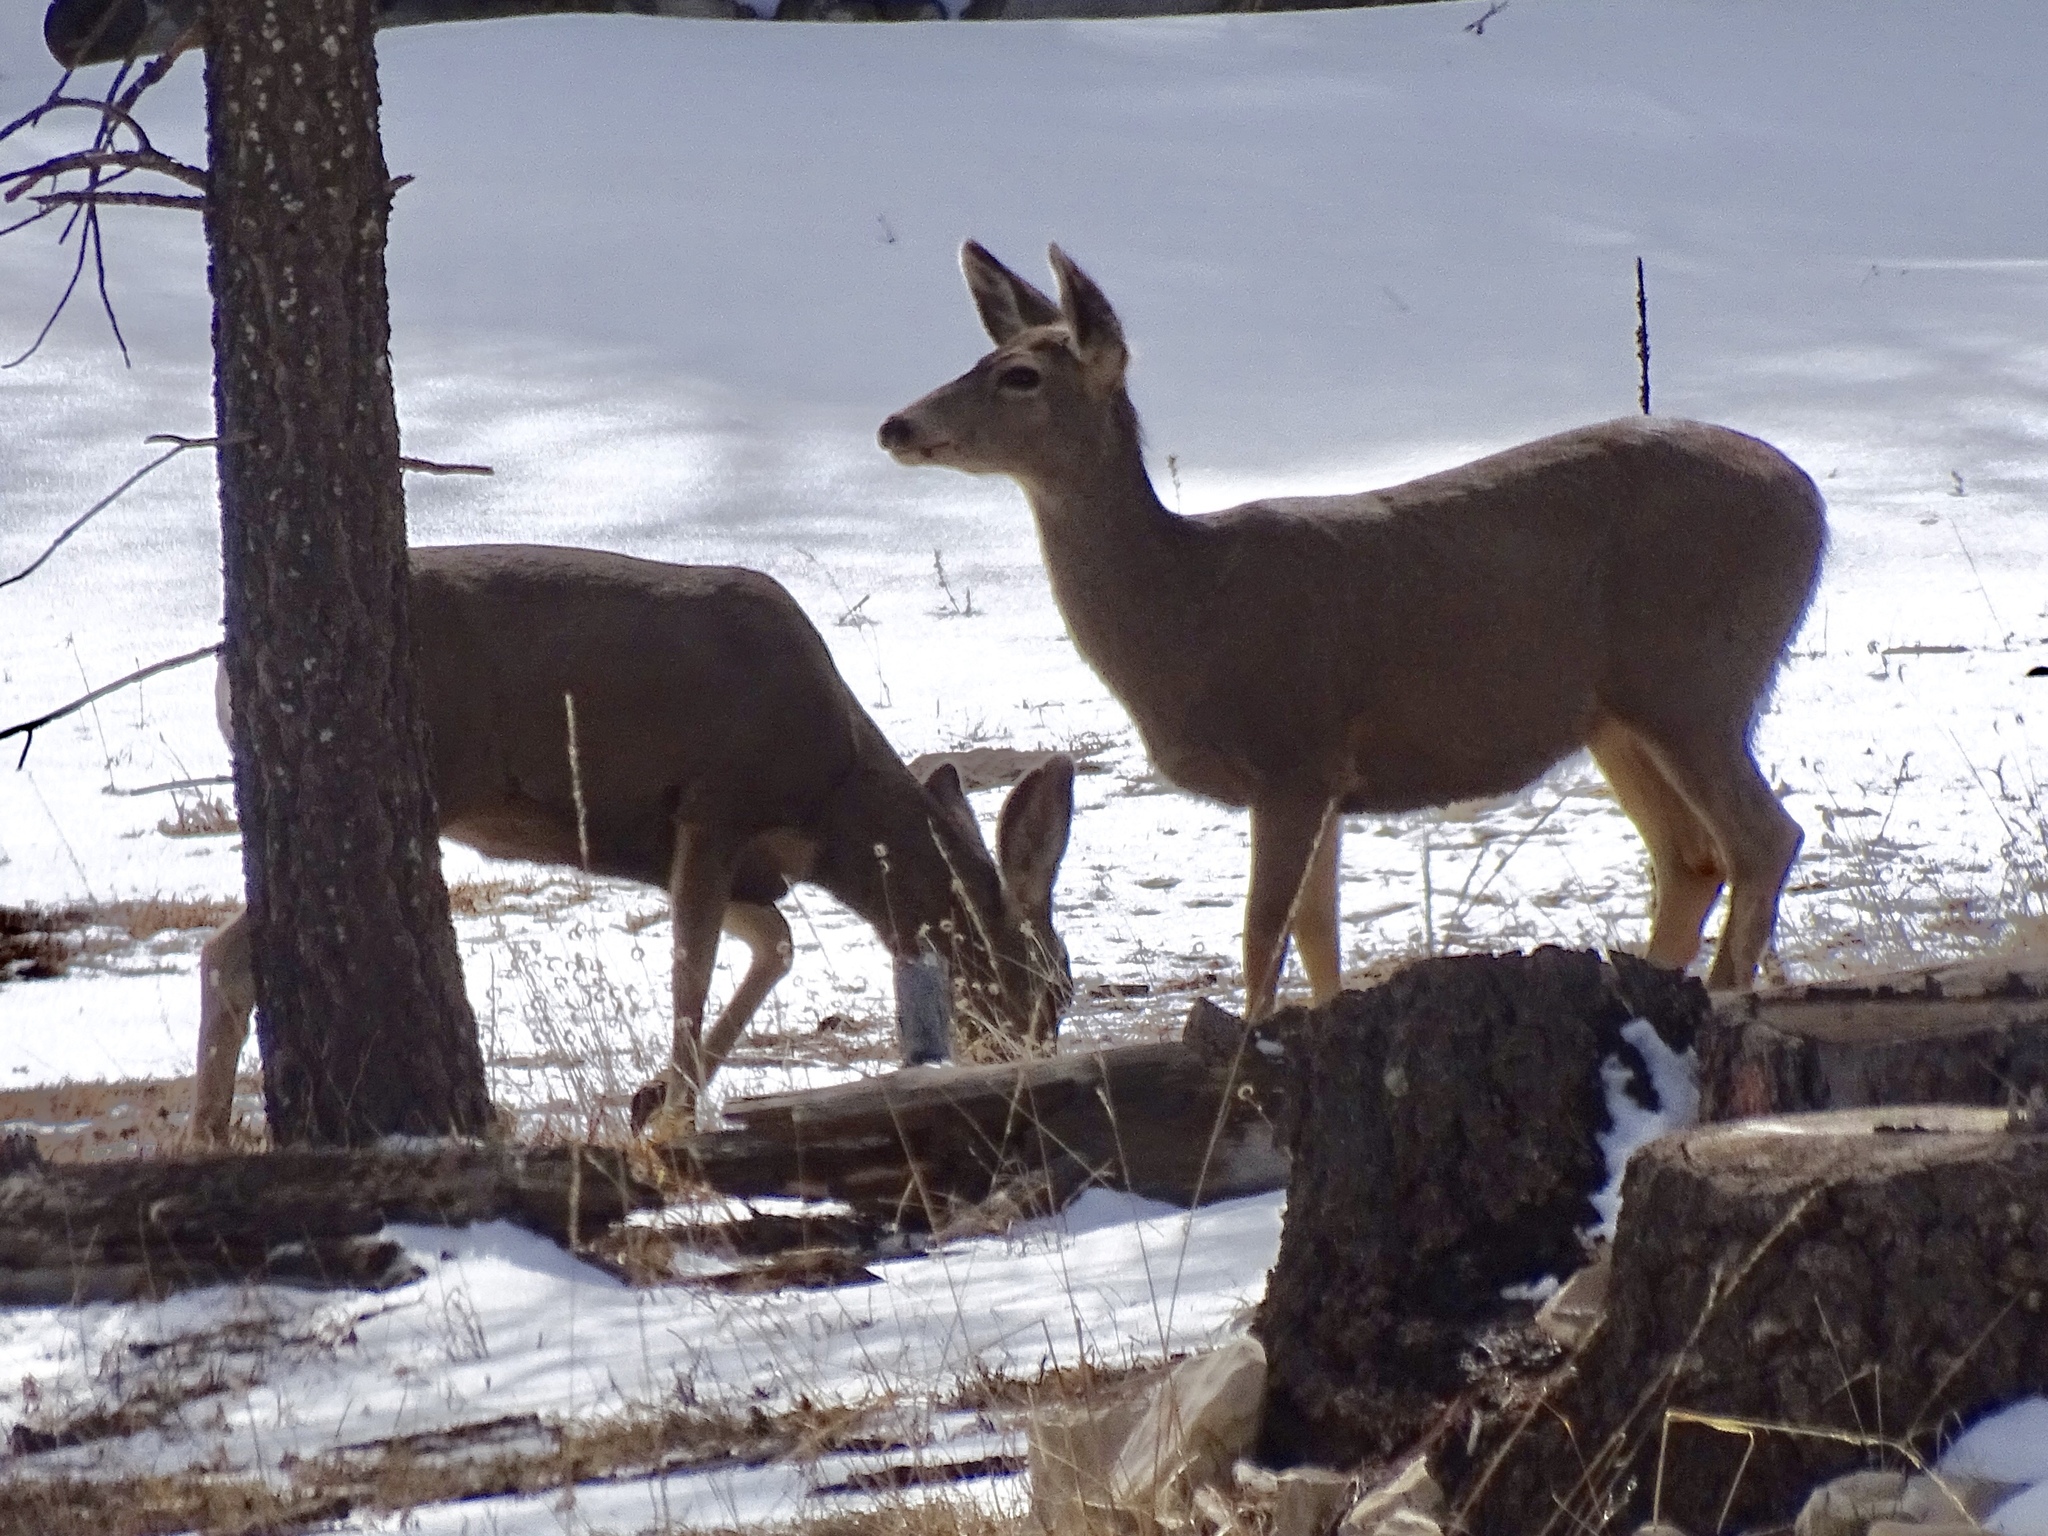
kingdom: Animalia
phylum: Chordata
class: Mammalia
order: Artiodactyla
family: Cervidae
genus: Odocoileus
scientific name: Odocoileus hemionus
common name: Mule deer
